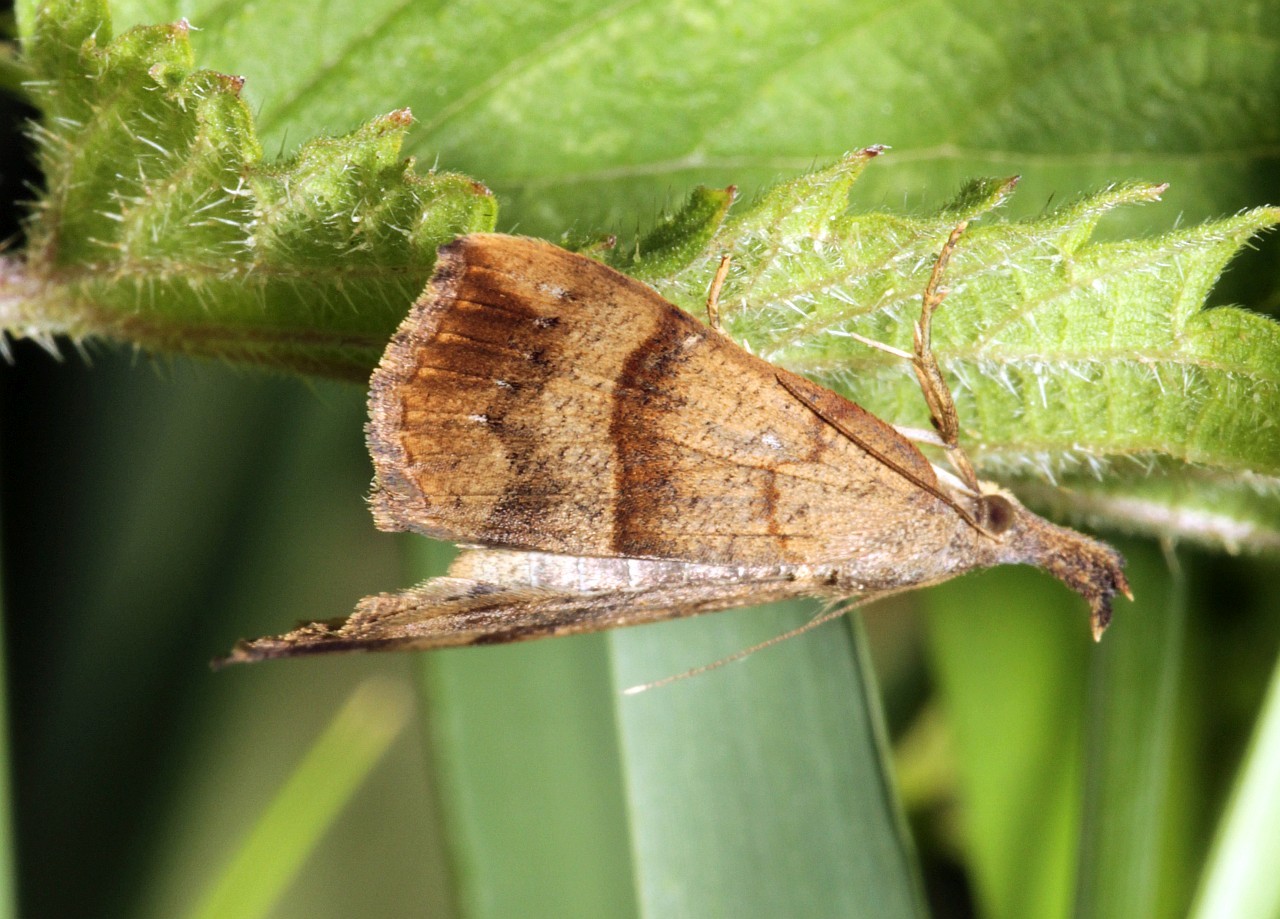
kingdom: Animalia
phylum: Arthropoda
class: Insecta
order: Lepidoptera
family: Erebidae
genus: Hypena
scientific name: Hypena proboscidalis
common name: Snout
